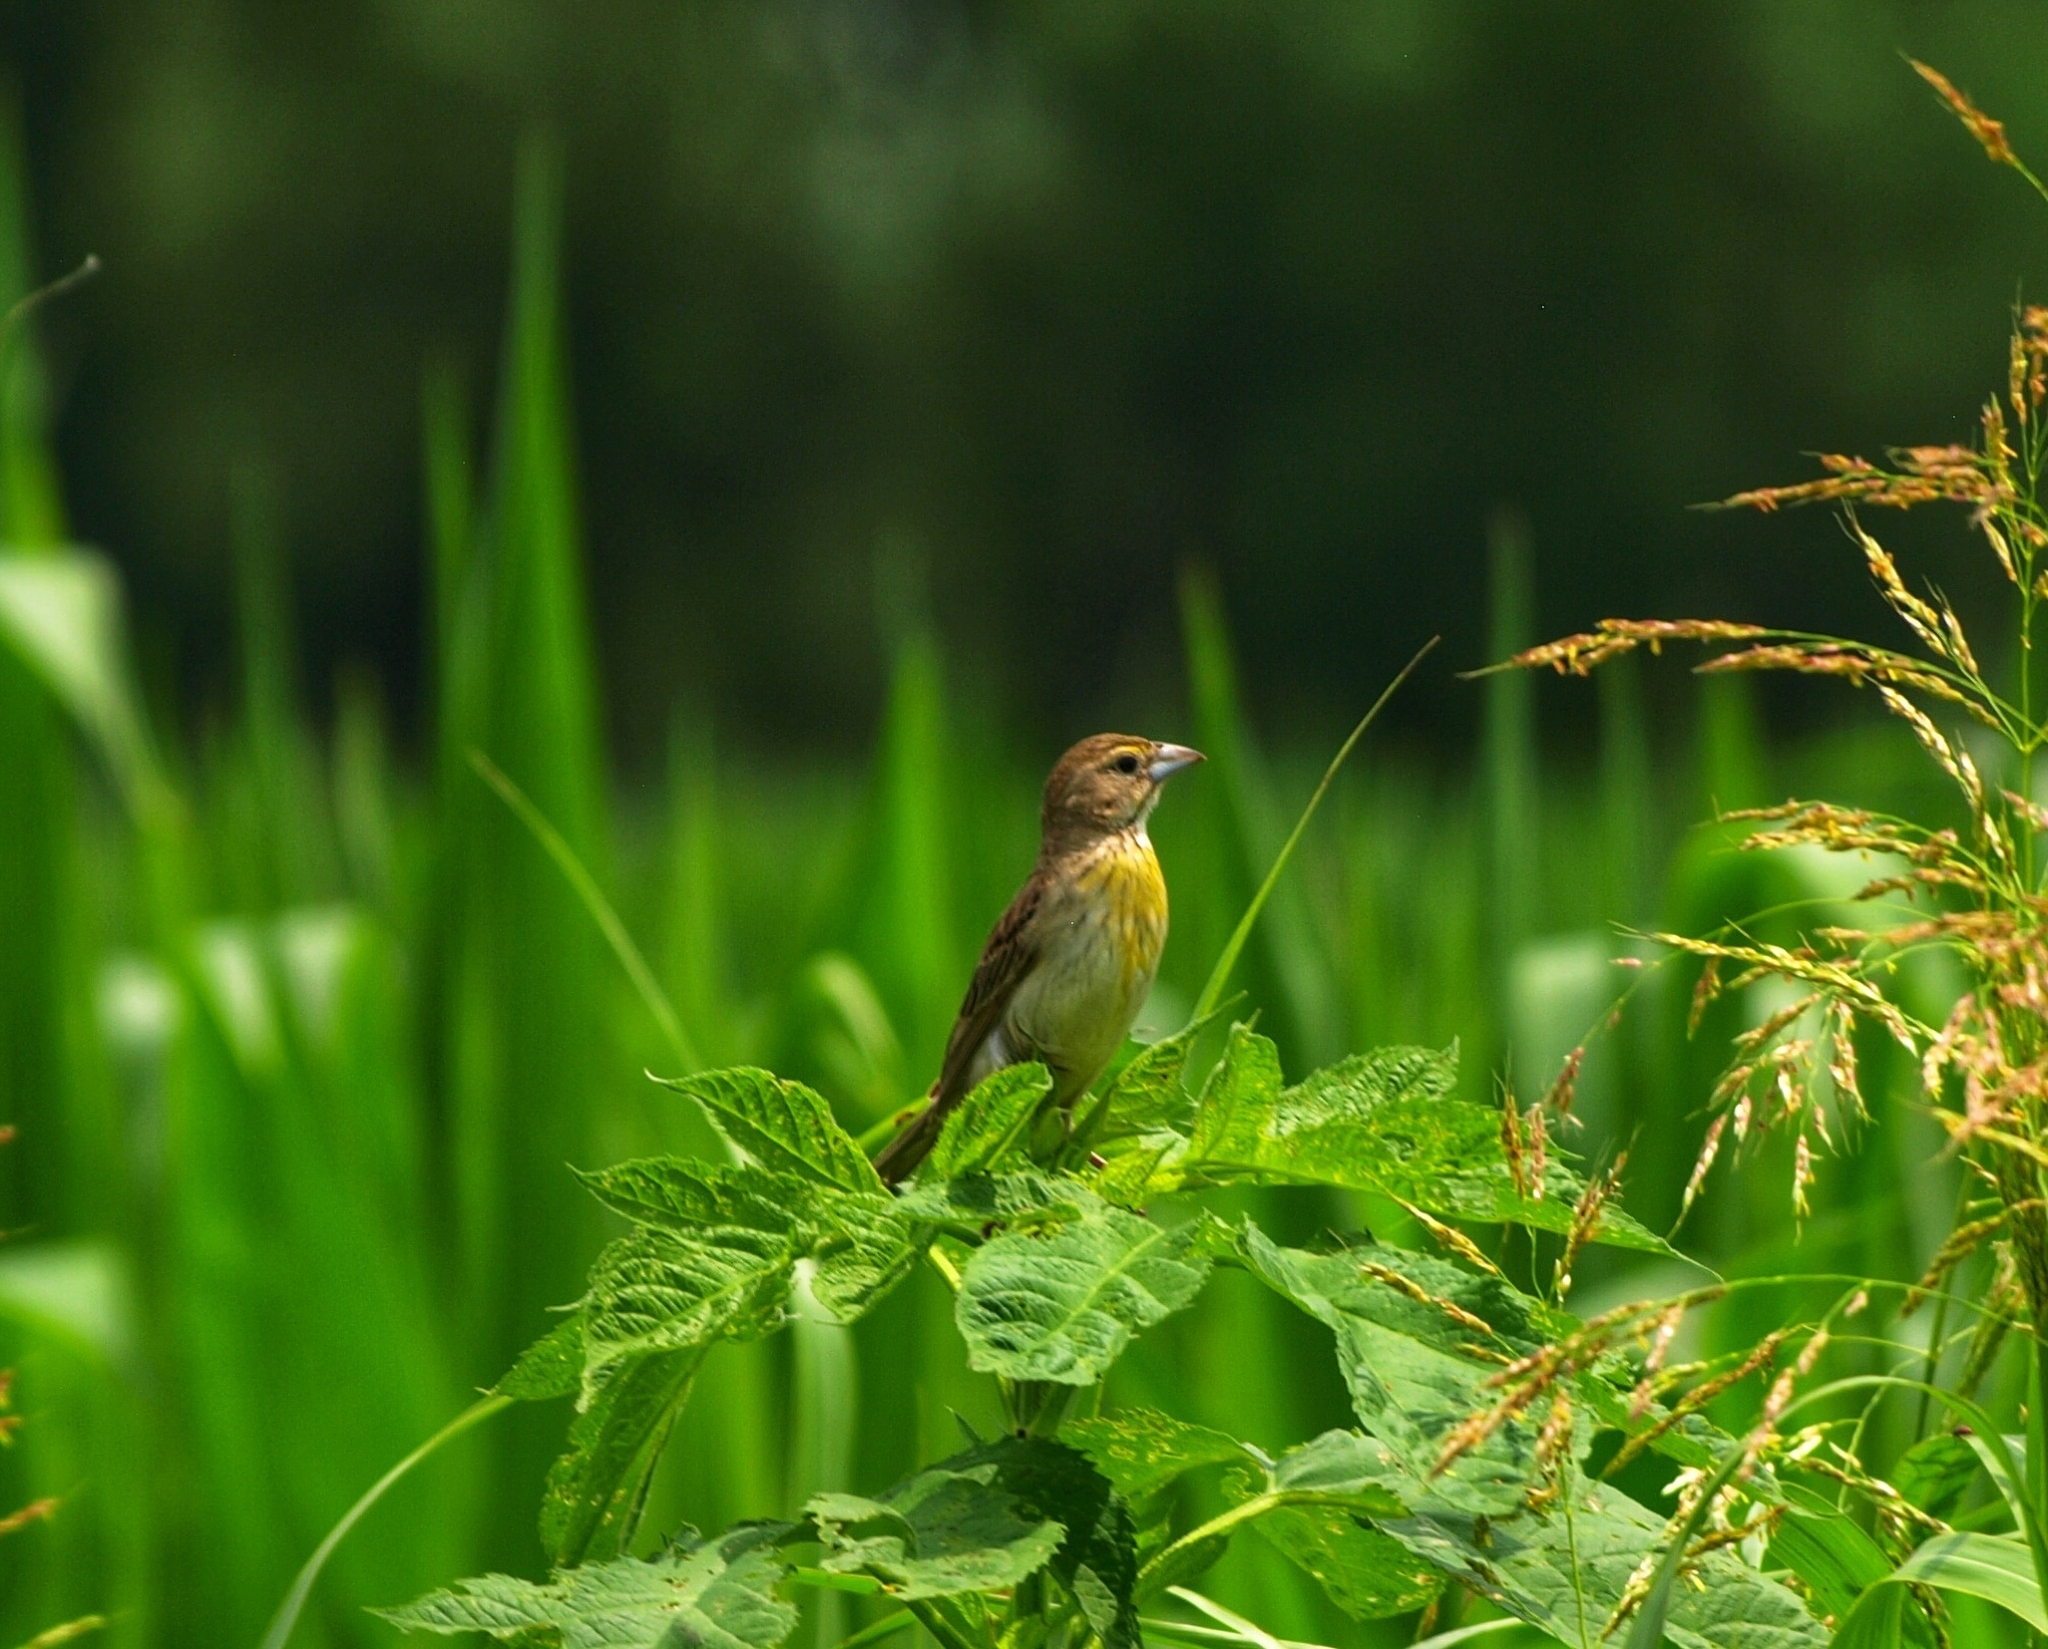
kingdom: Animalia
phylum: Chordata
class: Aves
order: Passeriformes
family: Cardinalidae
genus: Spiza
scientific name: Spiza americana
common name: Dickcissel
